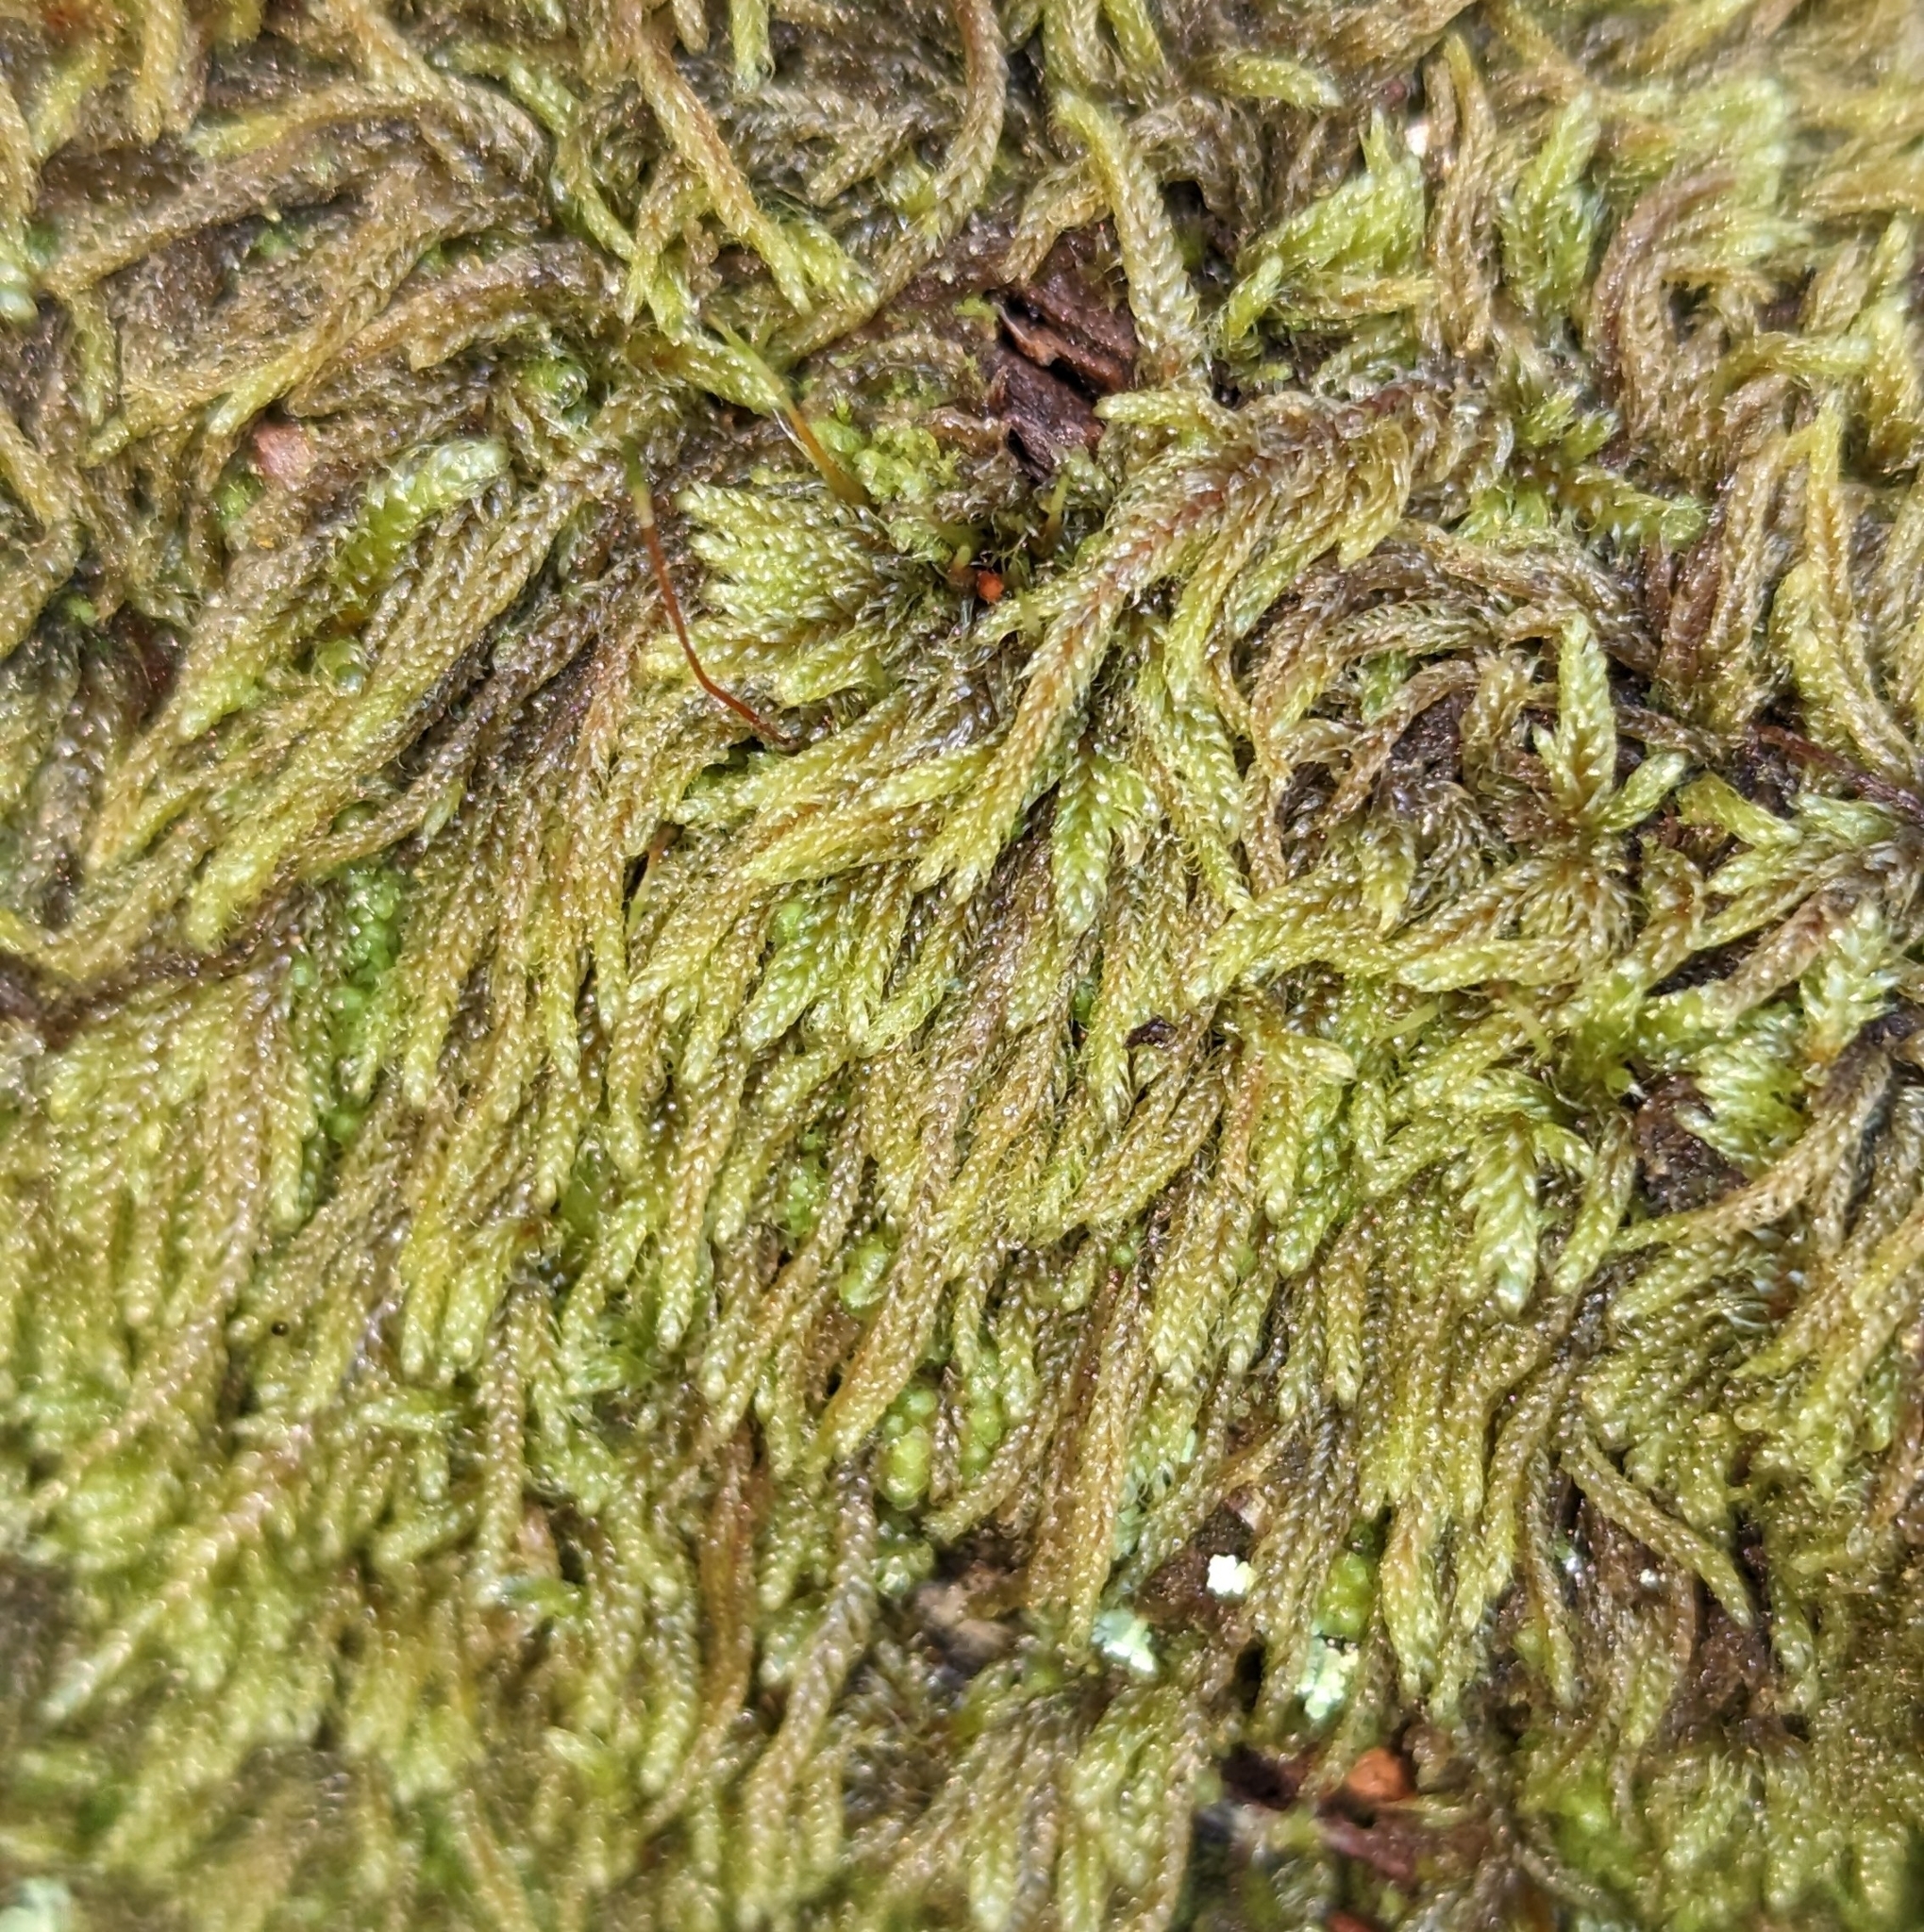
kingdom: Plantae
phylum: Bryophyta
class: Bryopsida
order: Hypnales
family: Pylaisiadelphaceae
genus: Trochophyllohypnum
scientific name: Trochophyllohypnum circinale
